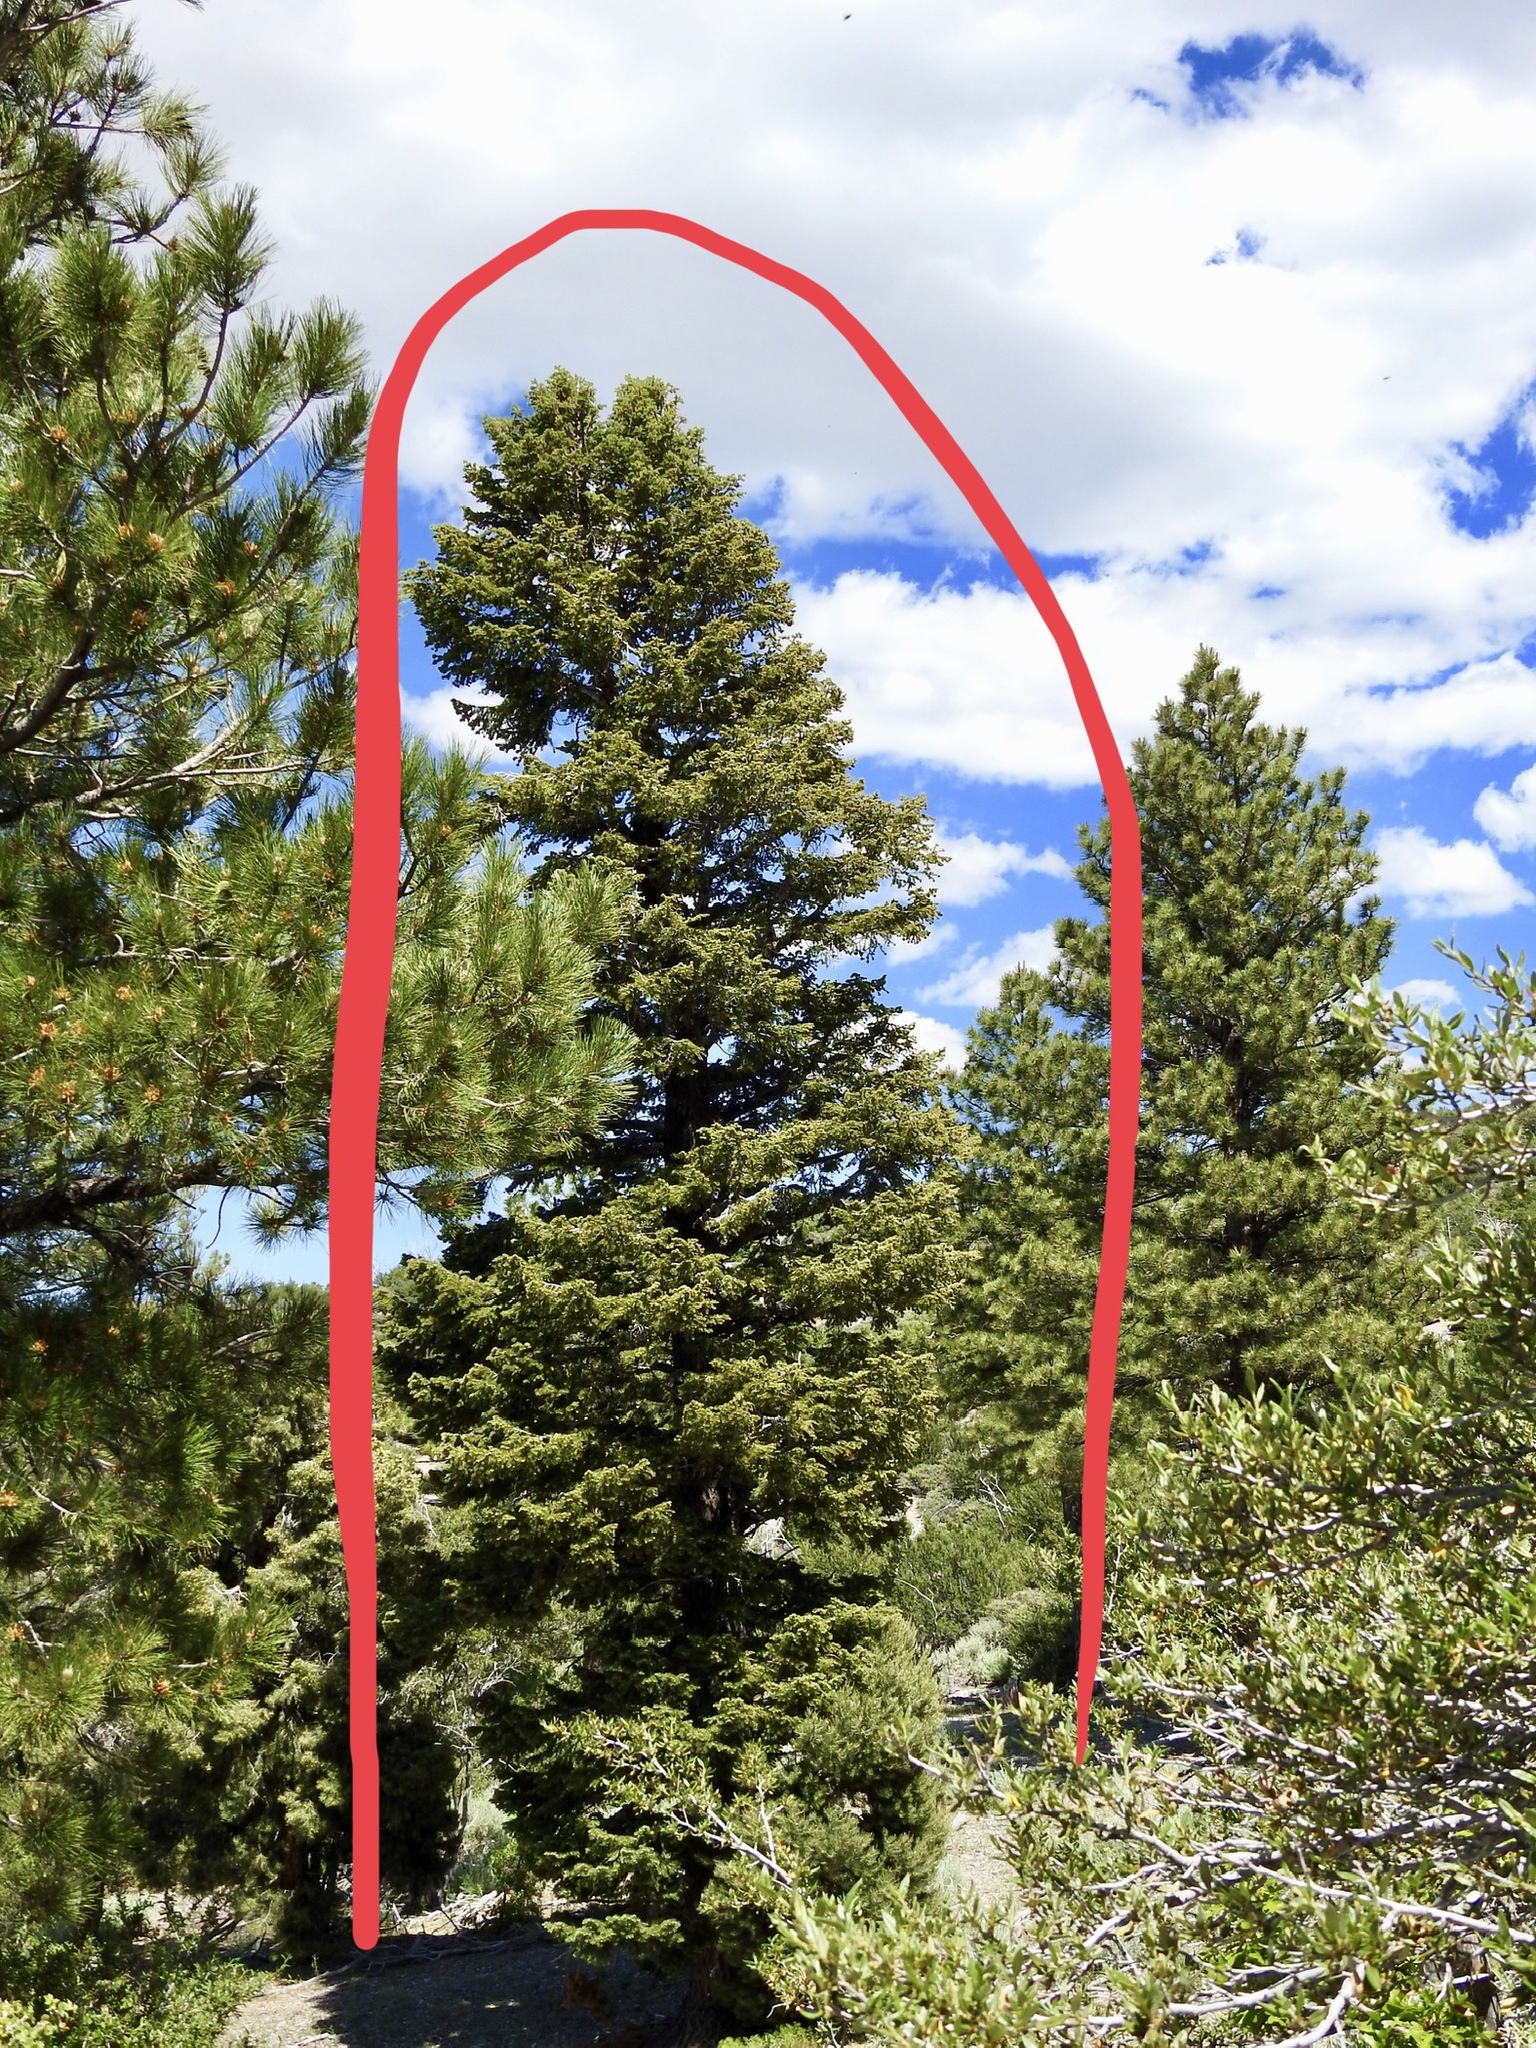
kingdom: Plantae
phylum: Tracheophyta
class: Pinopsida
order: Pinales
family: Pinaceae
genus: Abies
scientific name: Abies concolor
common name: Colorado fir
